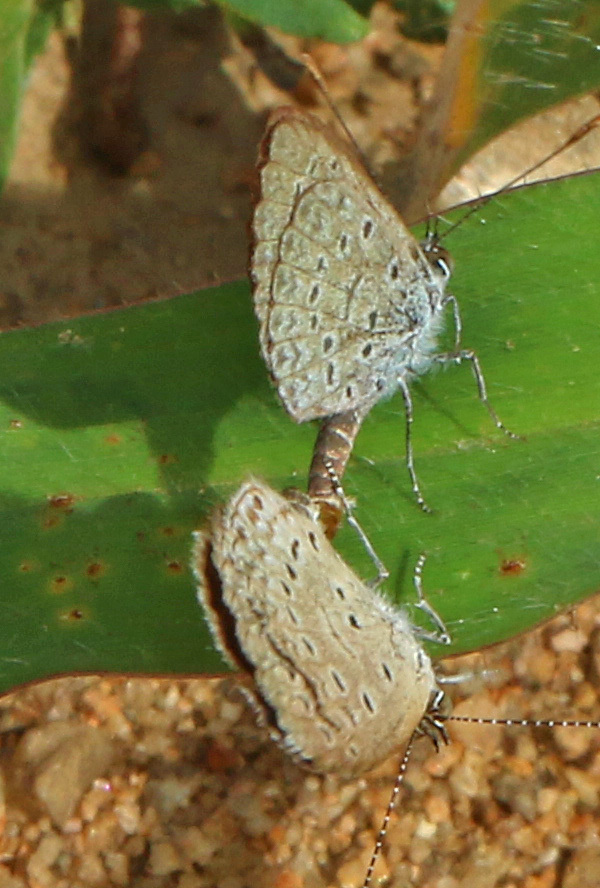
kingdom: Animalia
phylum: Arthropoda
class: Insecta
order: Lepidoptera
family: Lycaenidae
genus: Zizeeria
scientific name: Zizeeria knysna
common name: African grass blue
